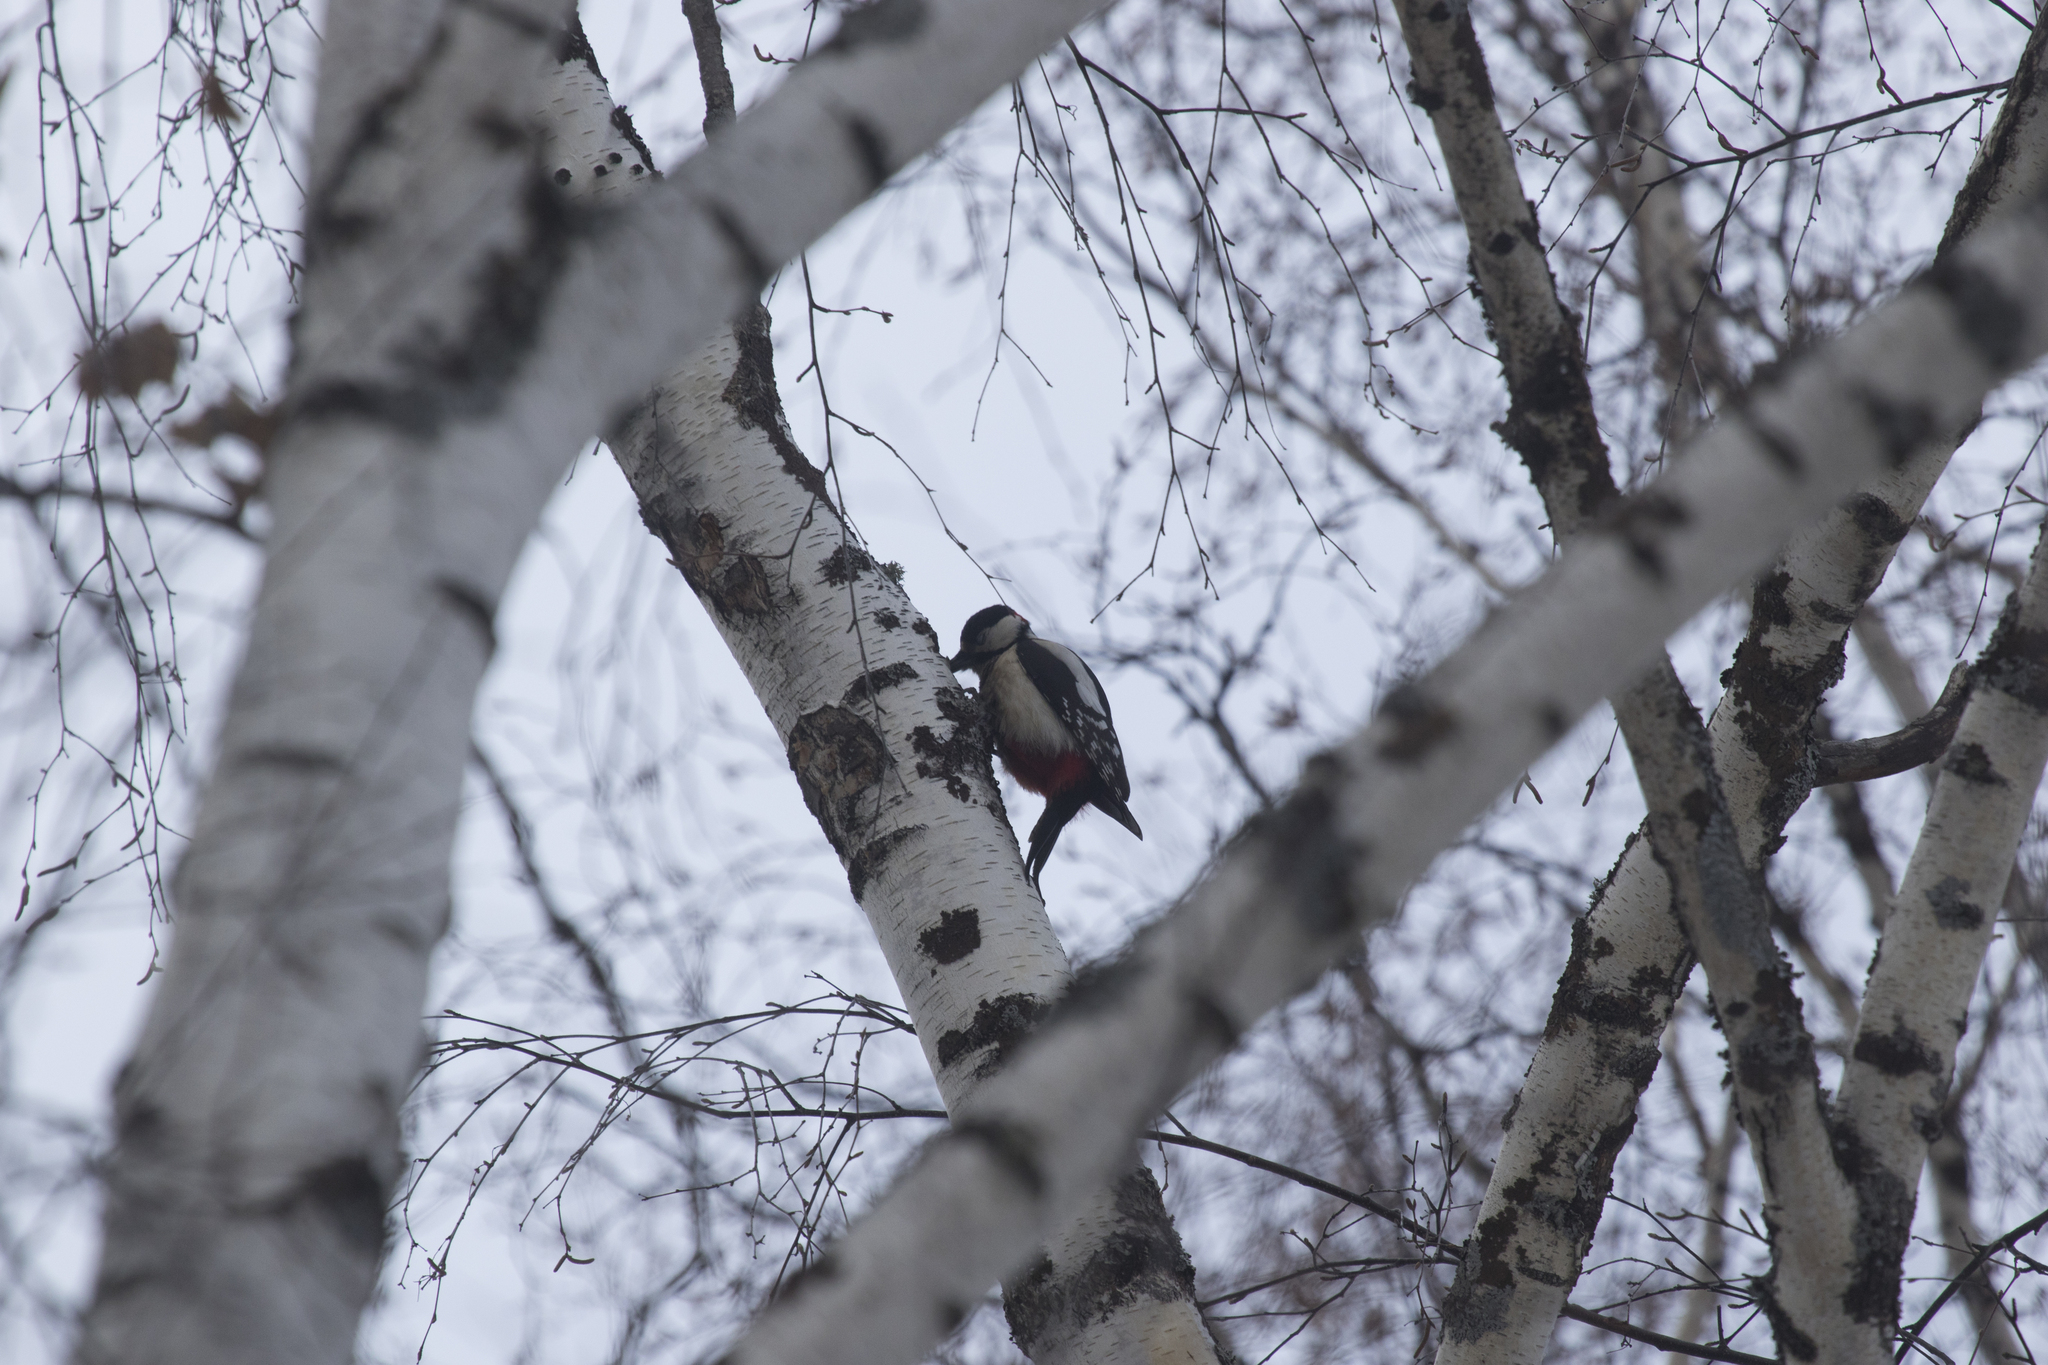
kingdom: Animalia
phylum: Chordata
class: Aves
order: Piciformes
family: Picidae
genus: Dendrocopos
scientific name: Dendrocopos major
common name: Great spotted woodpecker
